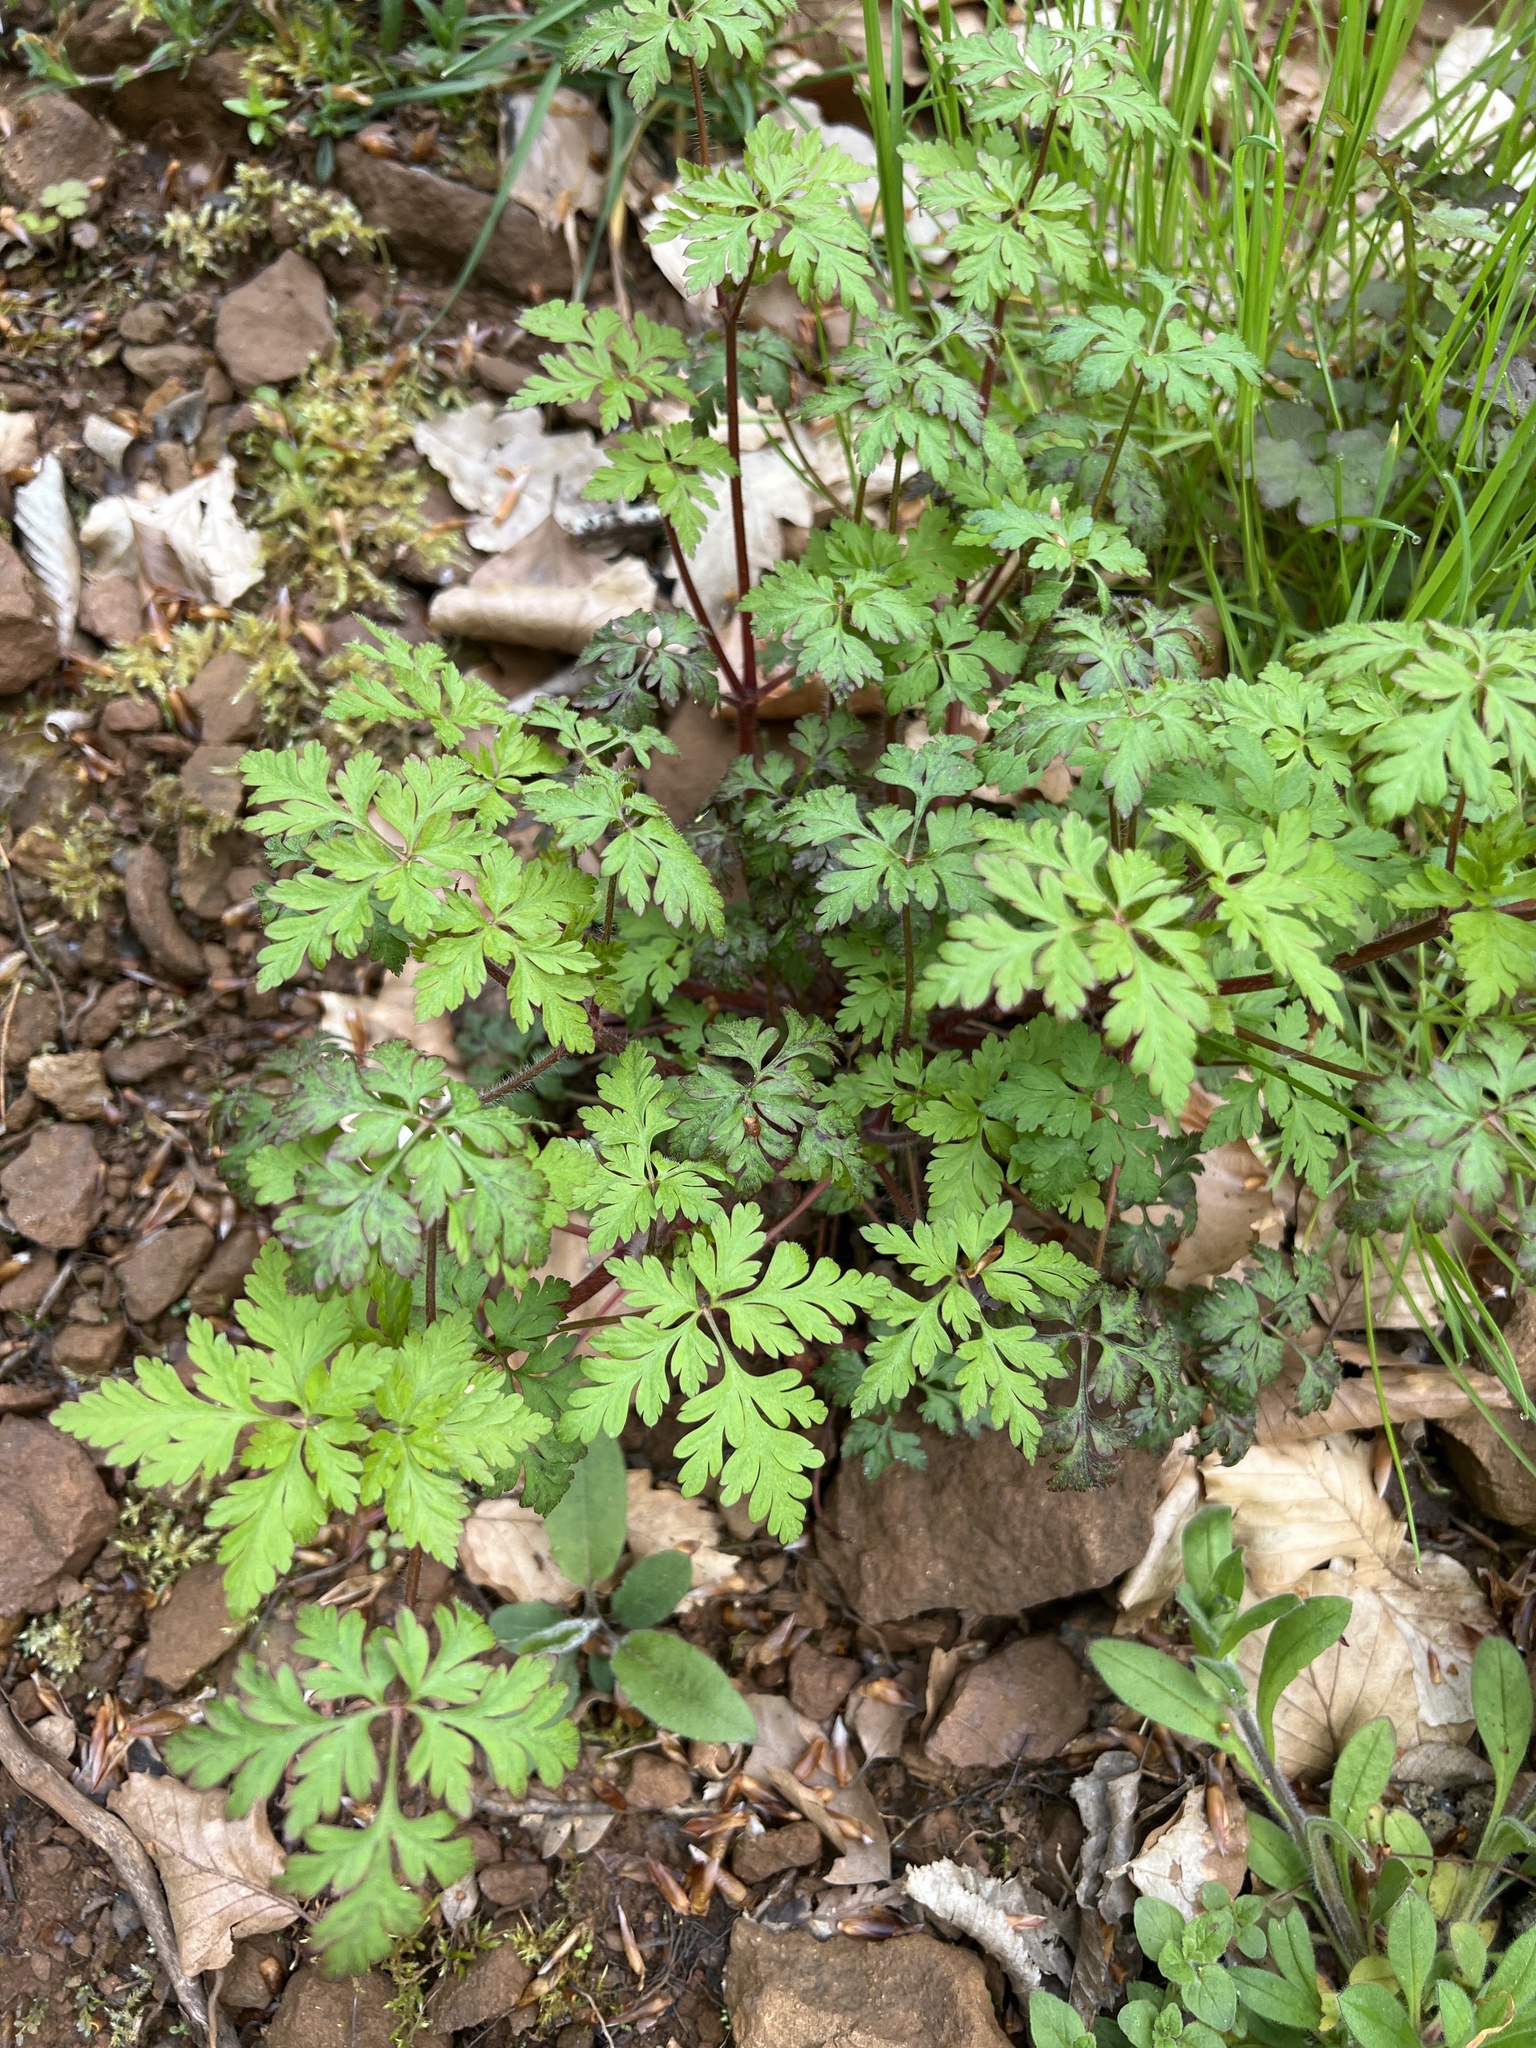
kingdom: Plantae
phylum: Tracheophyta
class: Magnoliopsida
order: Geraniales
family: Geraniaceae
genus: Geranium
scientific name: Geranium robertianum
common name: Herb-robert
